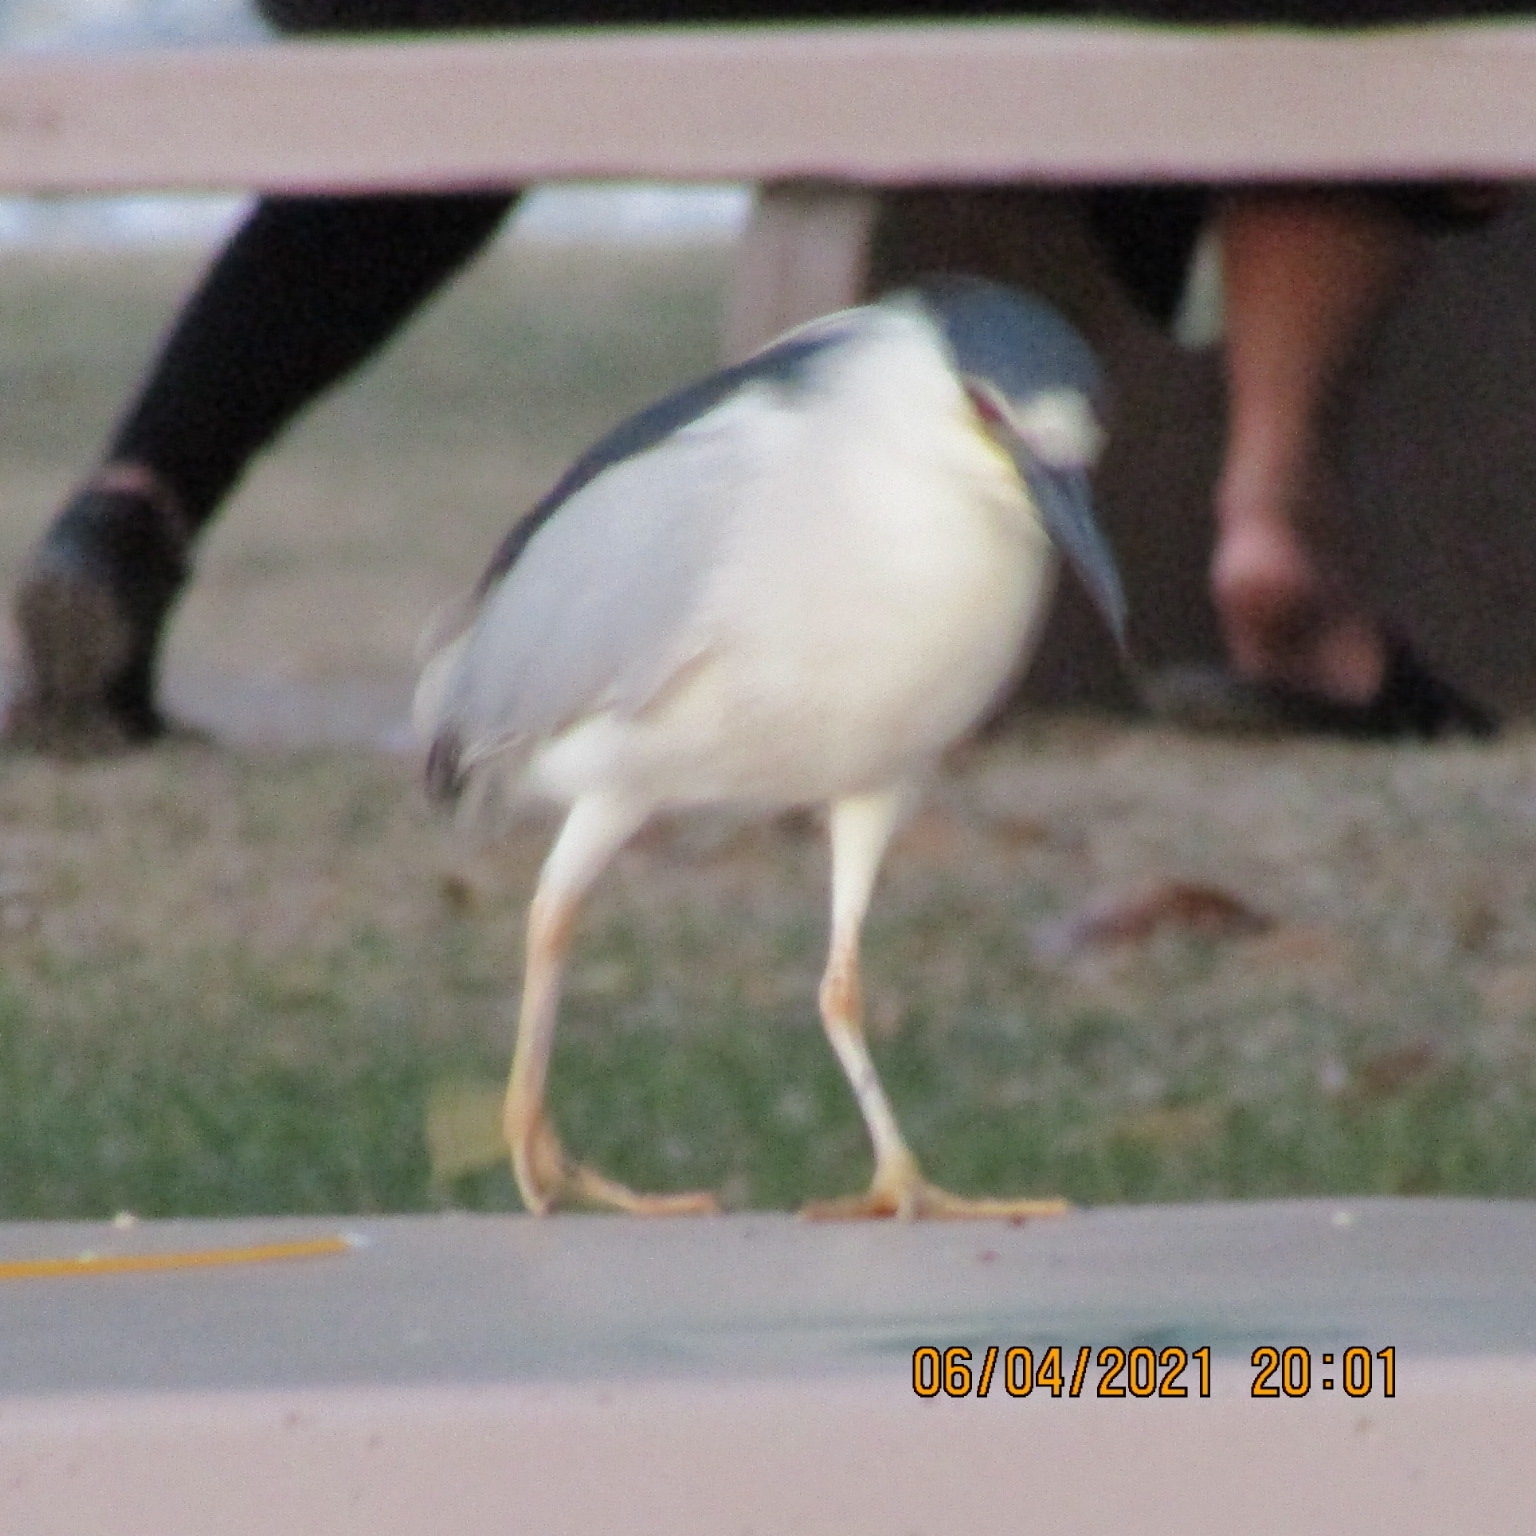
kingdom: Animalia
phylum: Chordata
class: Aves
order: Pelecaniformes
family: Ardeidae
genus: Nycticorax
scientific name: Nycticorax nycticorax
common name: Black-crowned night heron
